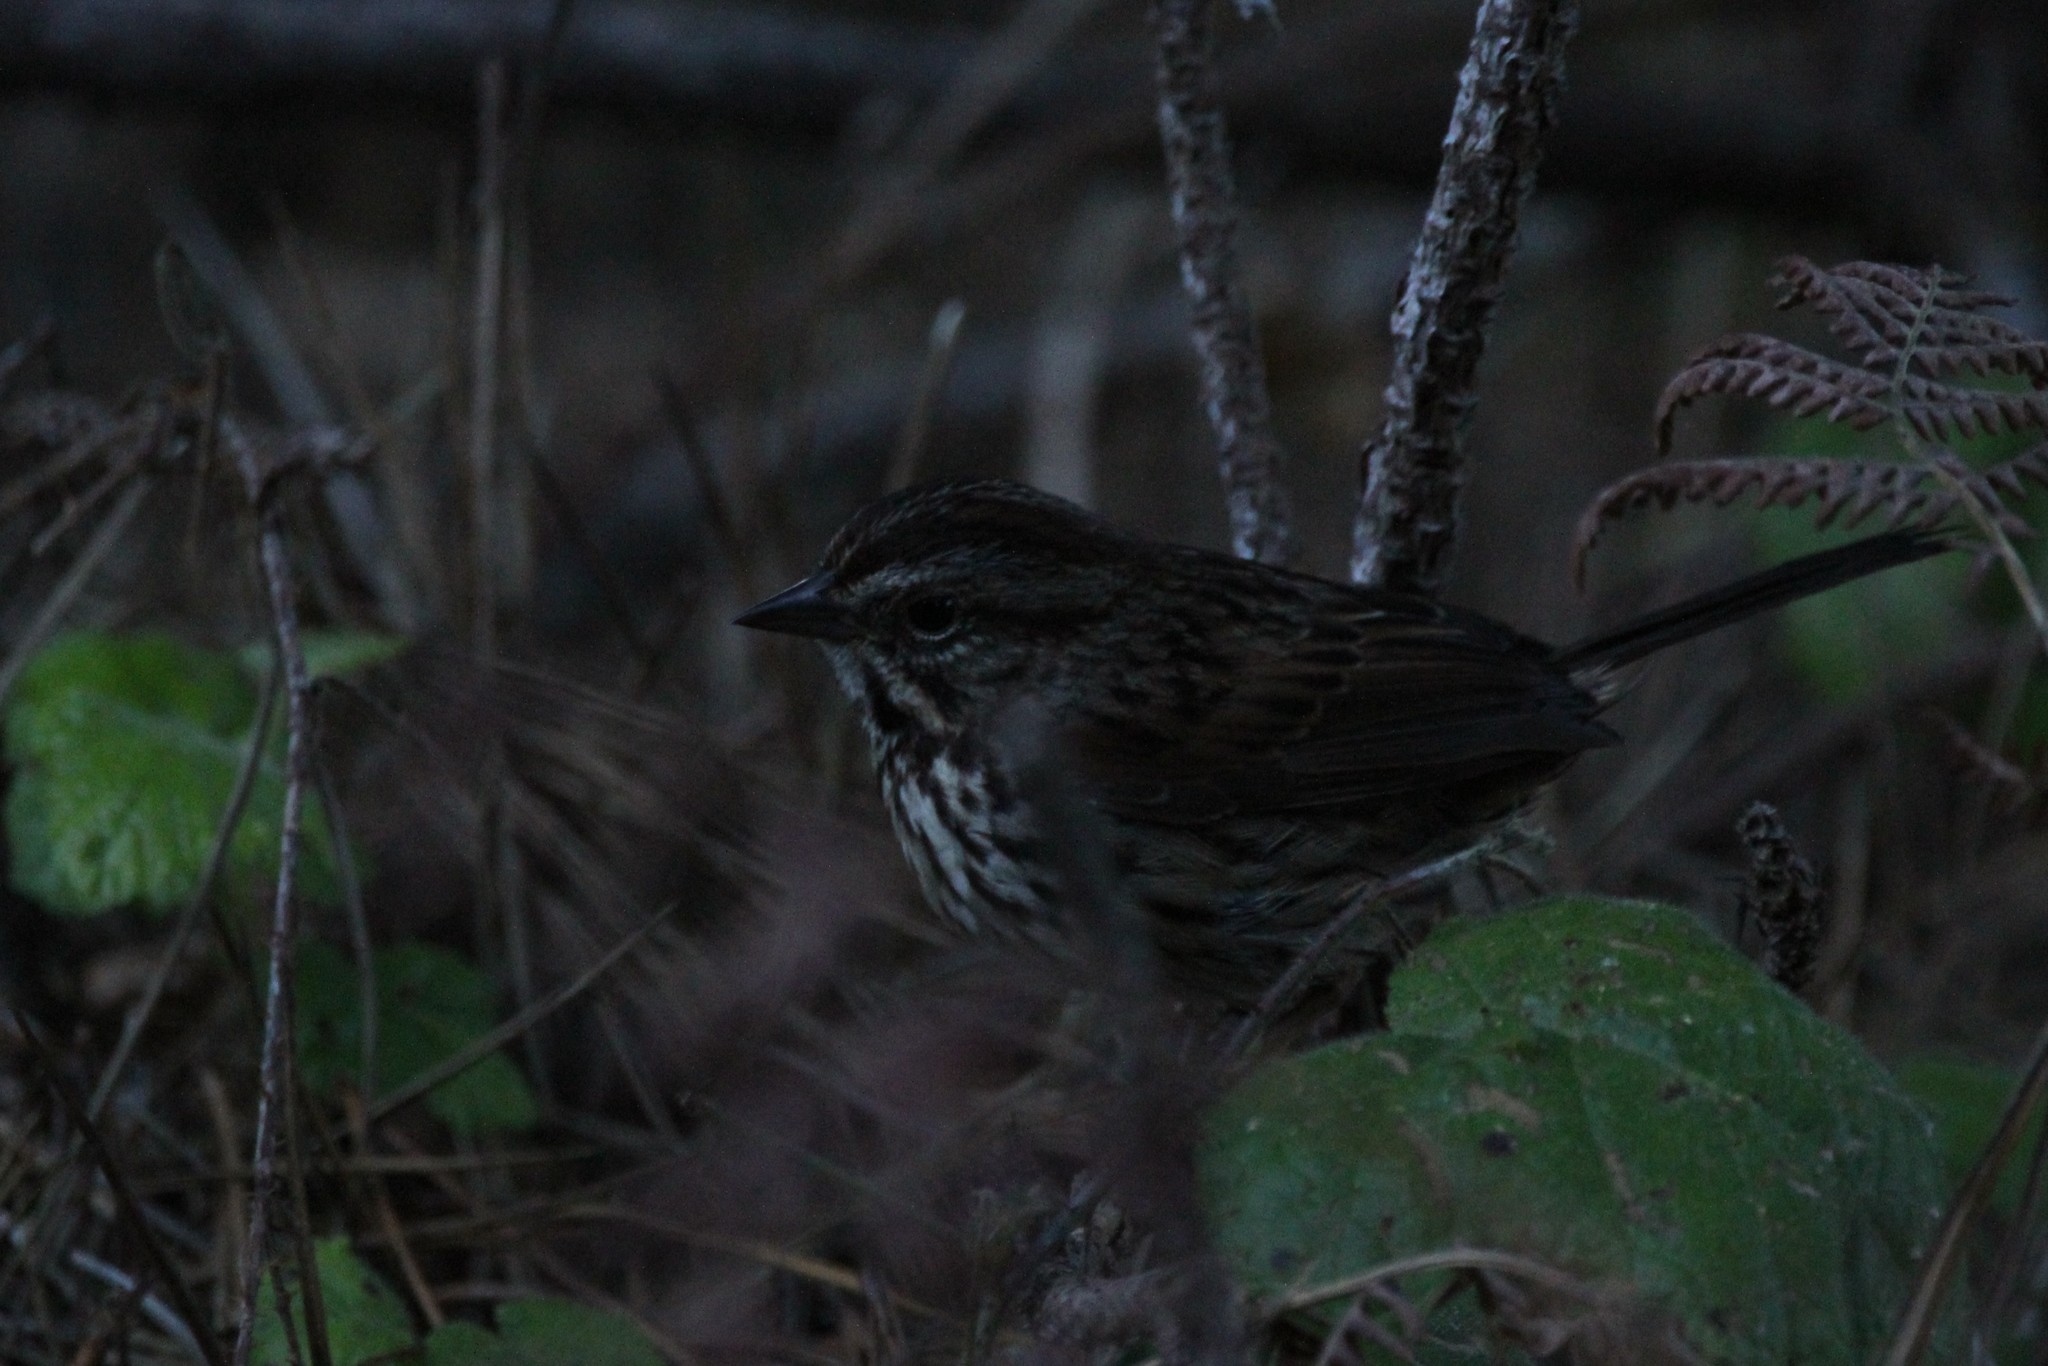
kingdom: Animalia
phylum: Chordata
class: Aves
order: Passeriformes
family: Passerellidae
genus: Melospiza
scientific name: Melospiza melodia
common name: Song sparrow
